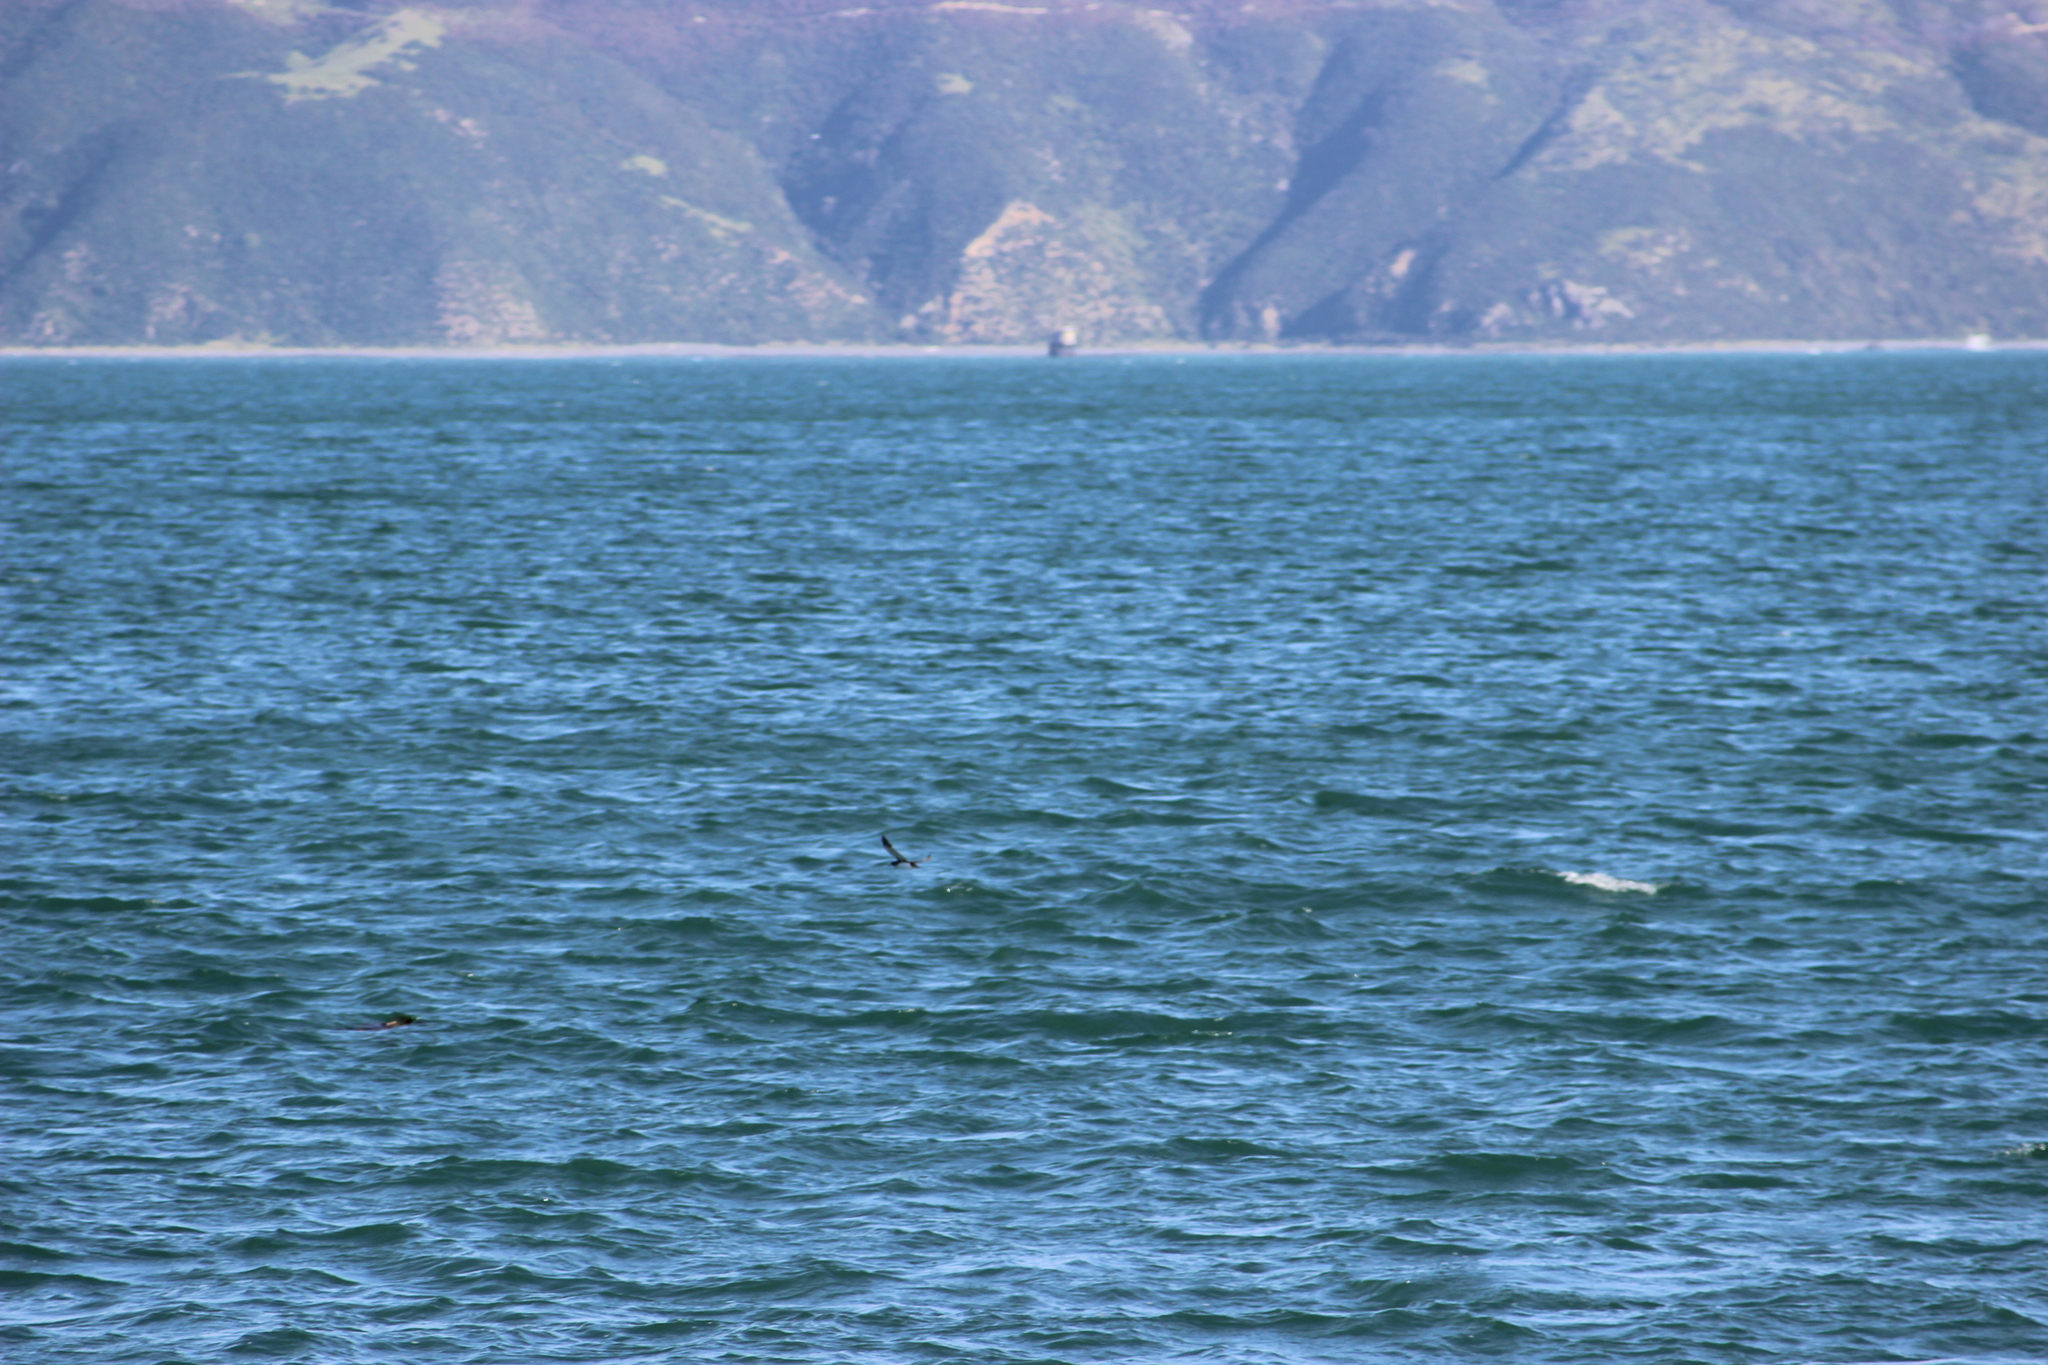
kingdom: Animalia
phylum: Chordata
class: Aves
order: Procellariiformes
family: Procellariidae
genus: Puffinus
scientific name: Puffinus gavia
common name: Fluttering shearwater
